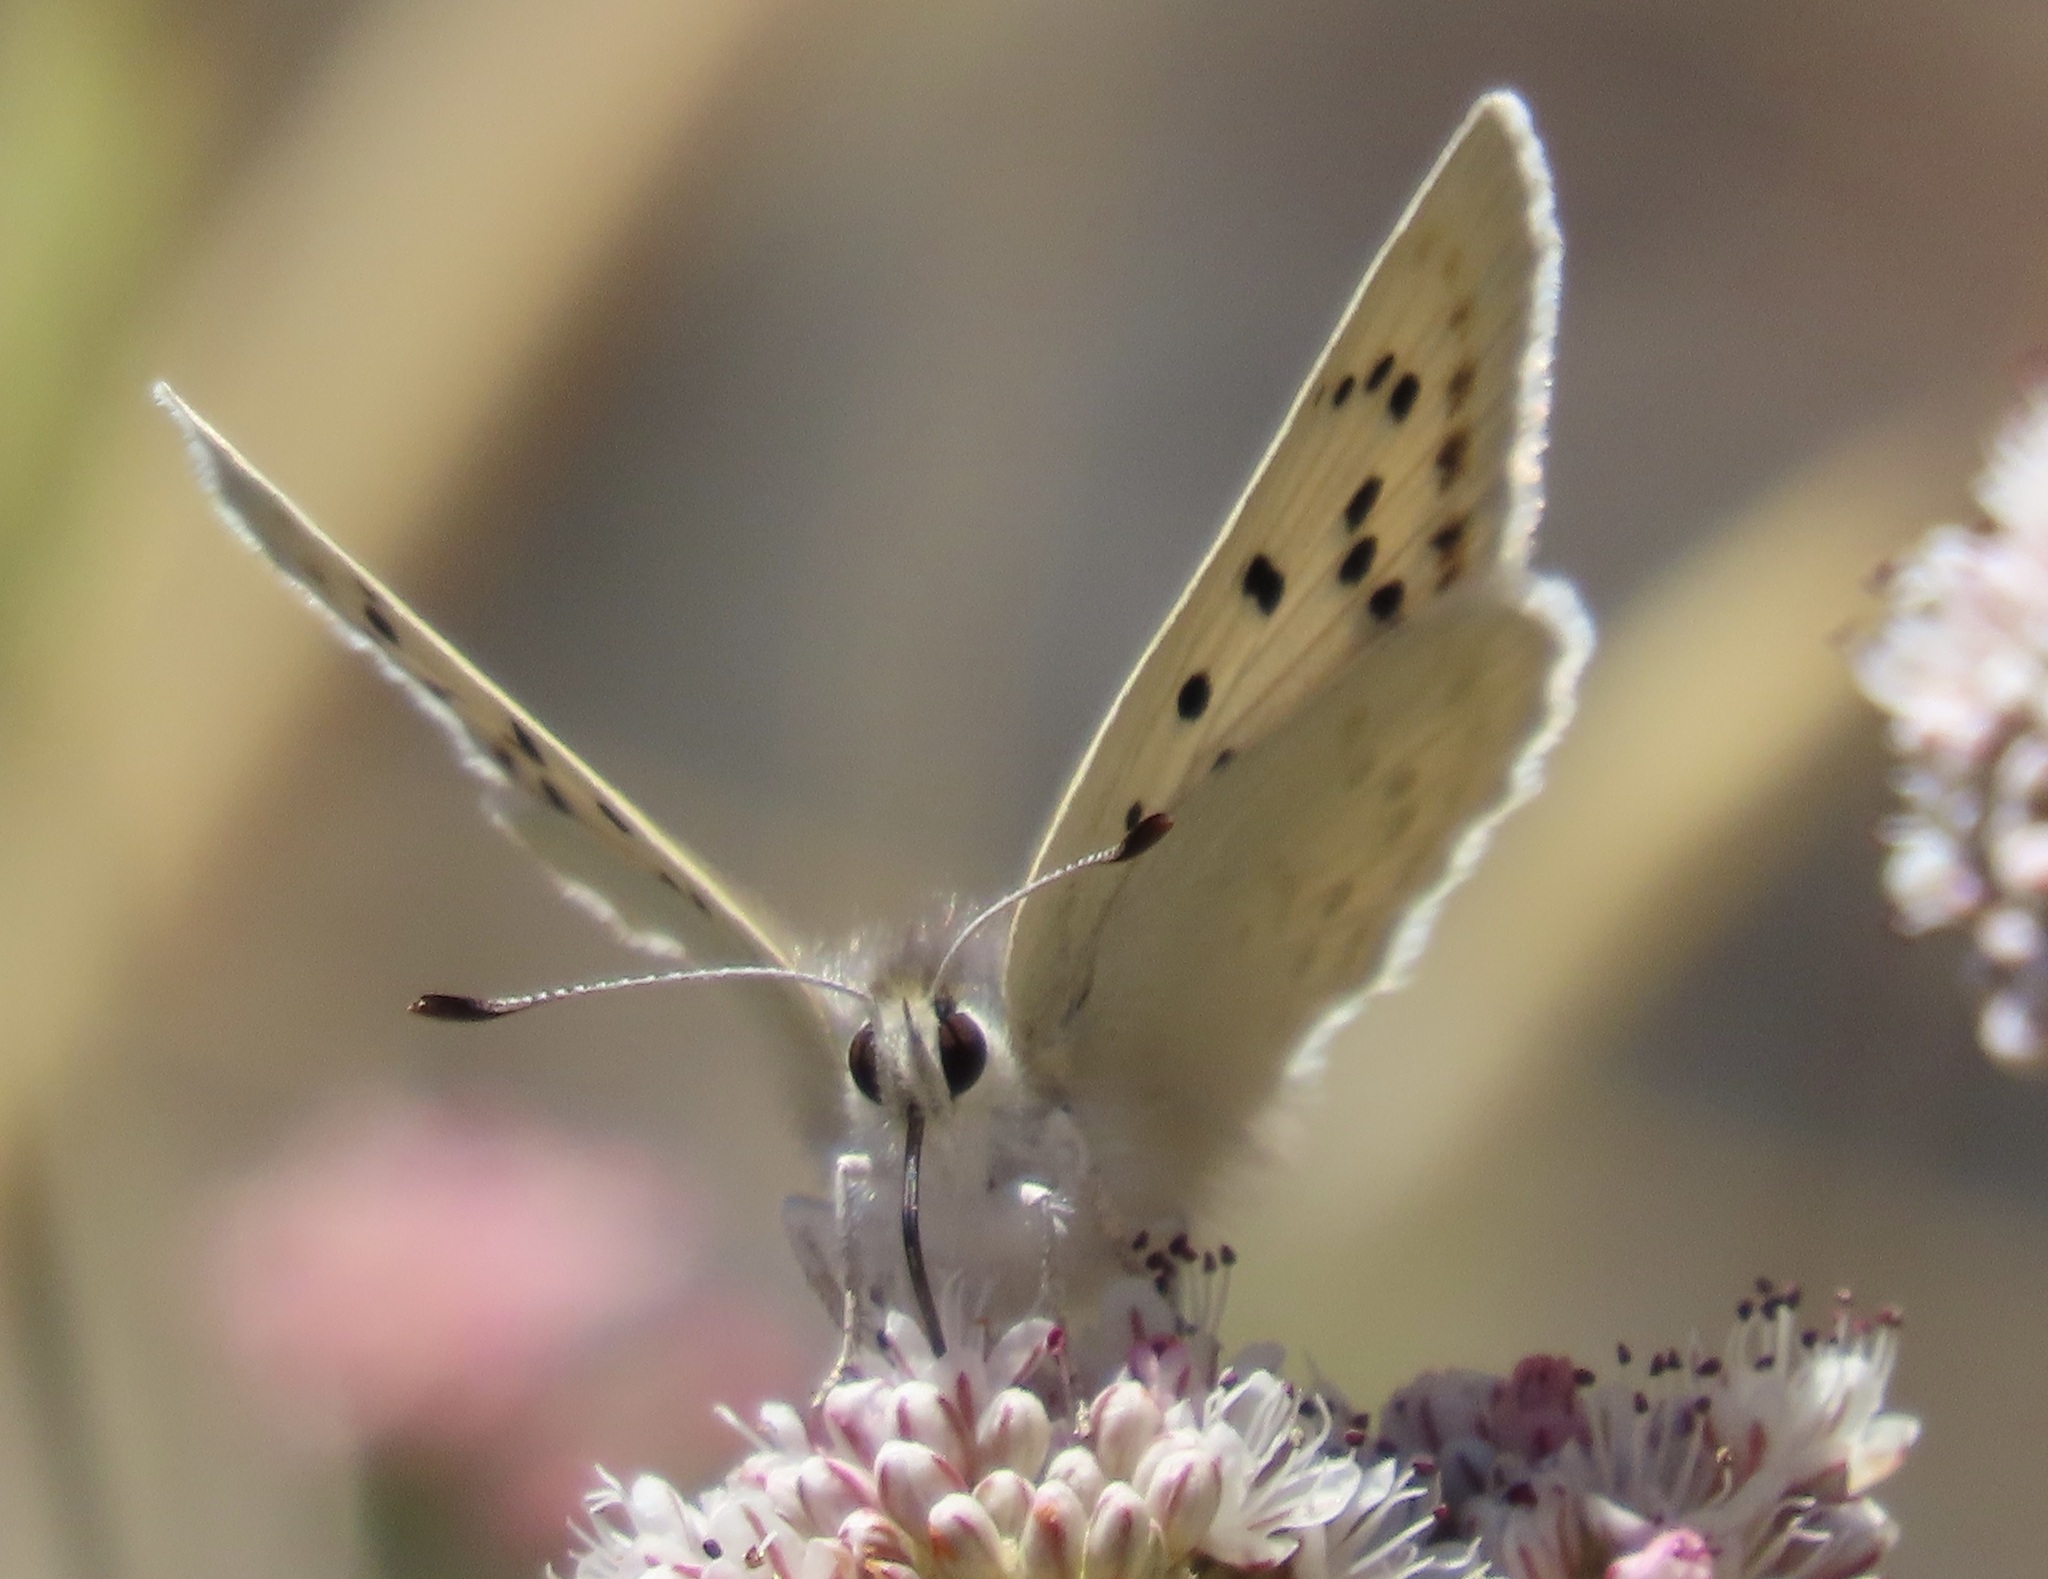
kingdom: Animalia
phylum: Arthropoda
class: Insecta
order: Lepidoptera
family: Lycaenidae
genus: Tharsalea
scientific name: Tharsalea heteronea
